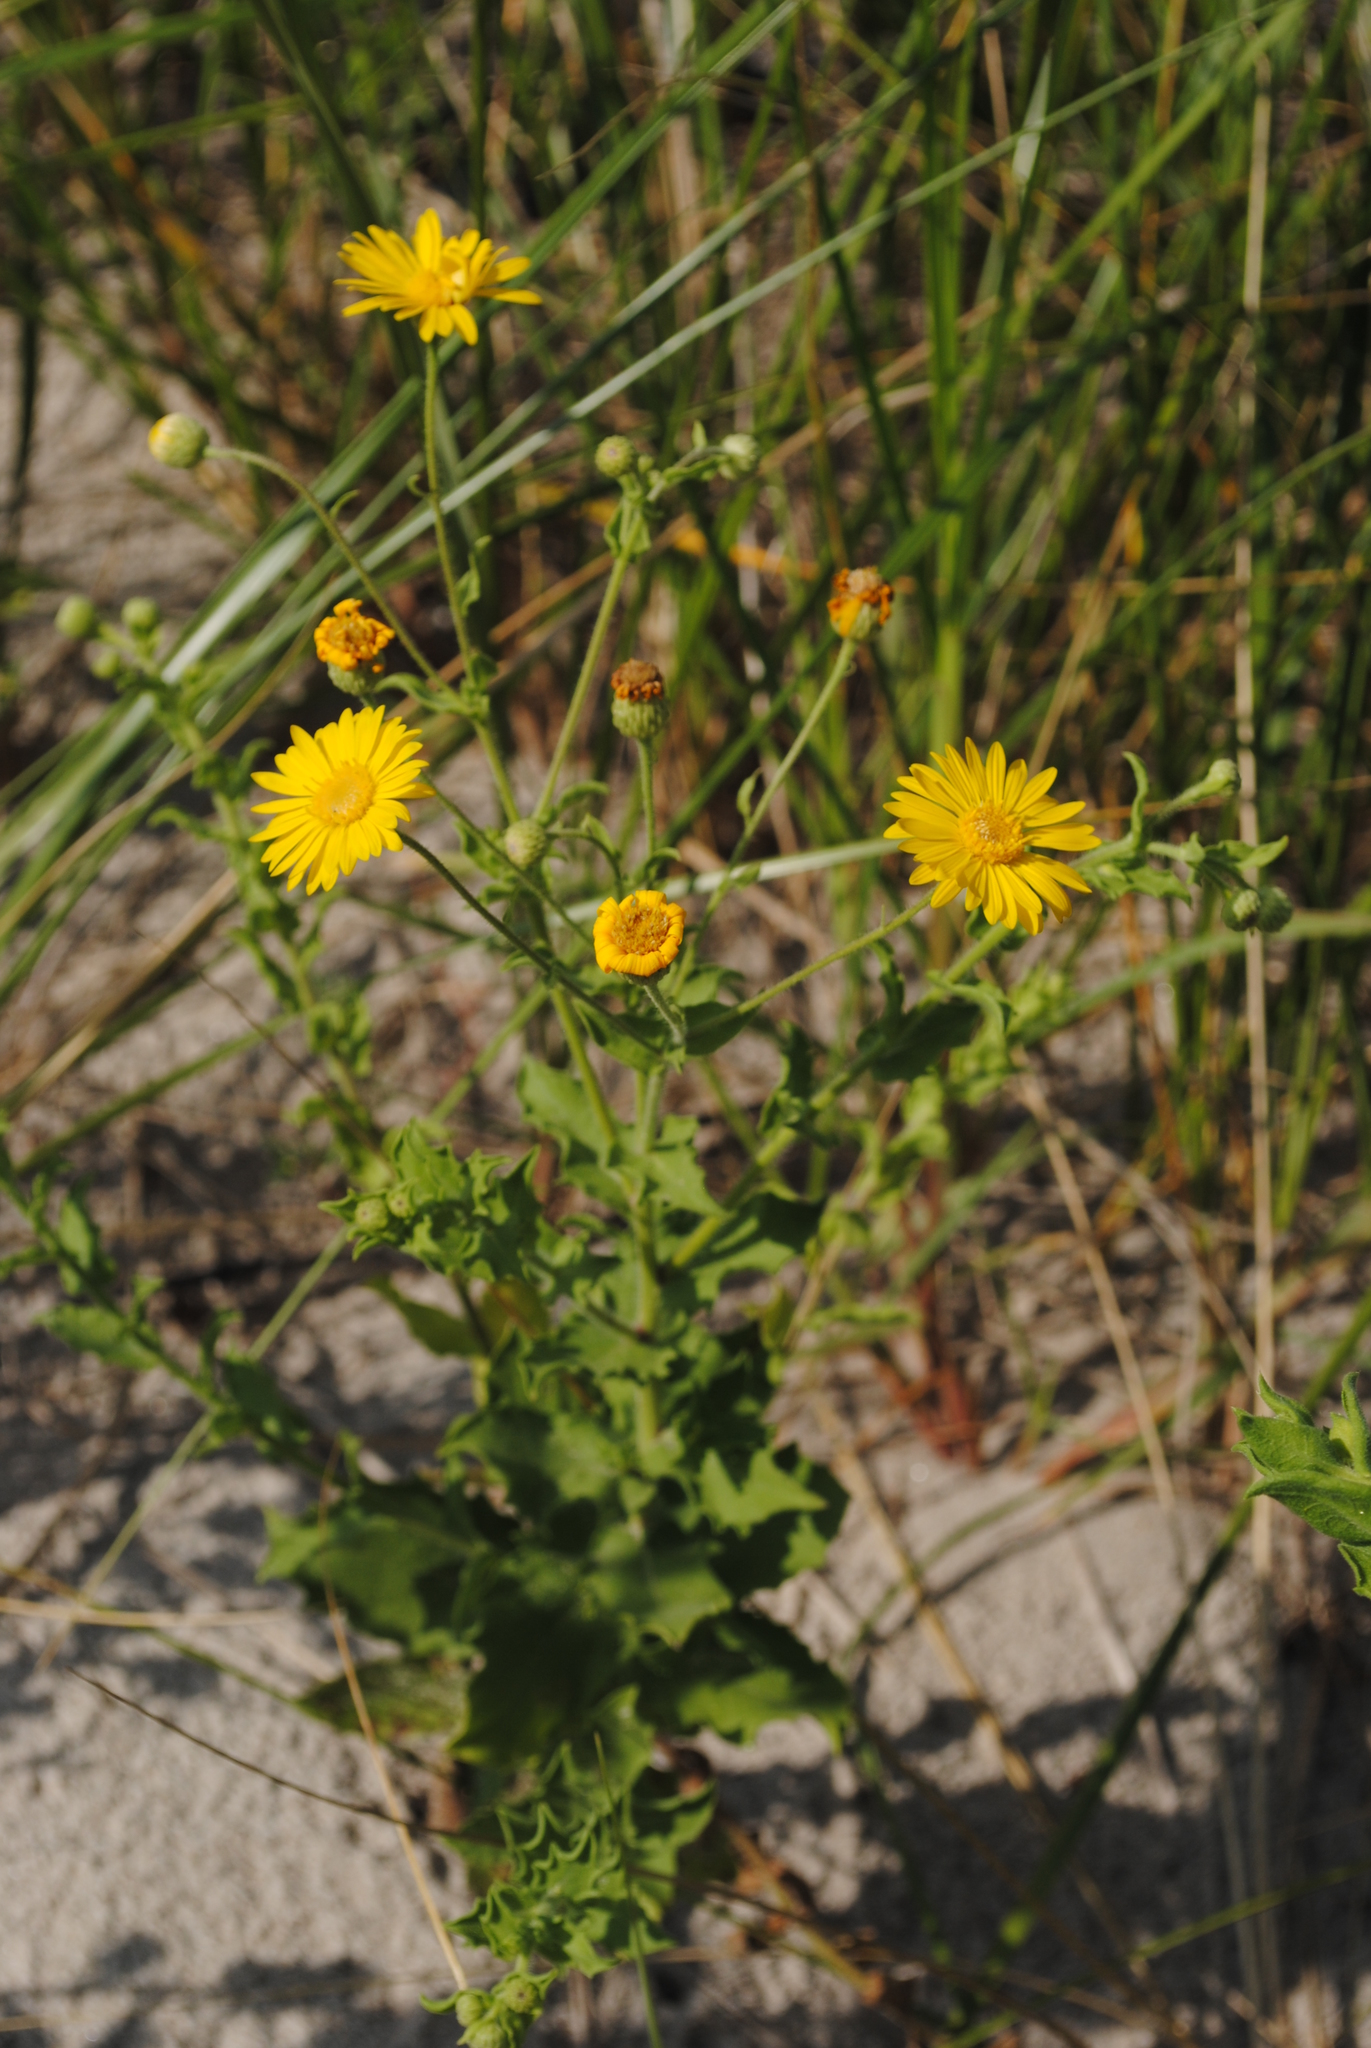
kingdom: Plantae
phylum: Tracheophyta
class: Magnoliopsida
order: Asterales
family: Asteraceae
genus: Heterotheca
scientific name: Heterotheca subaxillaris
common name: Camphorweed
